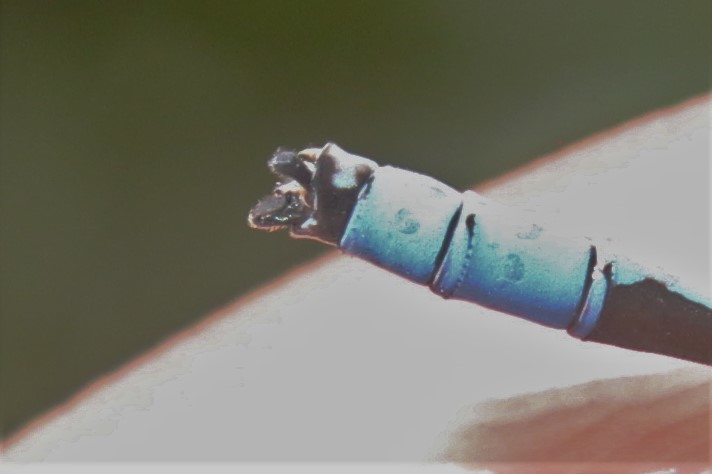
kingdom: Animalia
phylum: Arthropoda
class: Insecta
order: Odonata
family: Coenagrionidae
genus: Enallagma
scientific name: Enallagma civile
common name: Damselfly
